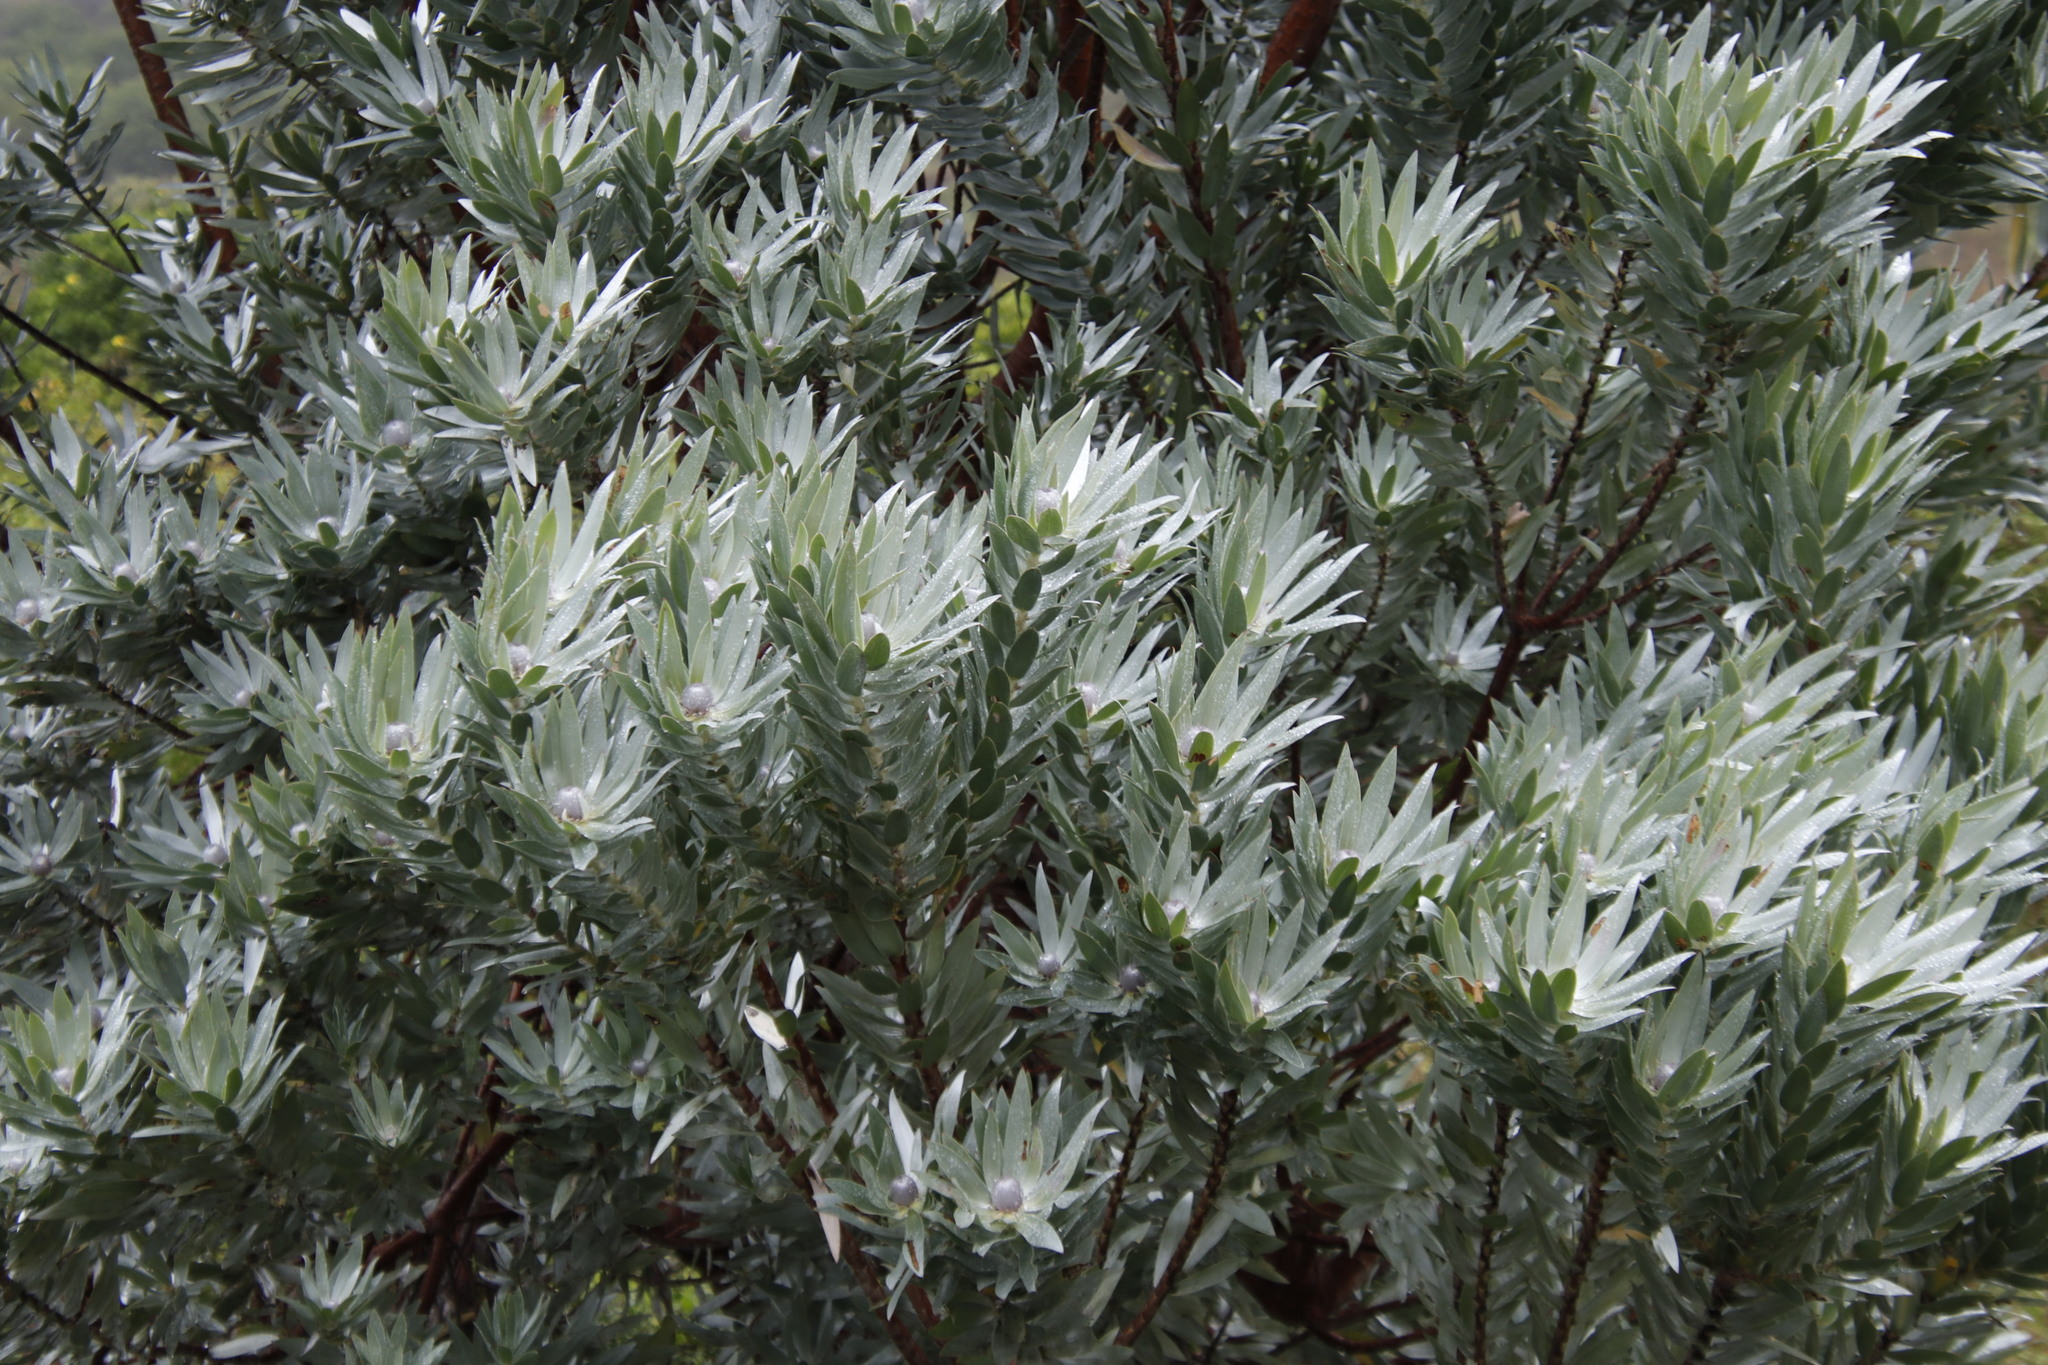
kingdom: Plantae
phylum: Tracheophyta
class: Magnoliopsida
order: Proteales
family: Proteaceae
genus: Leucadendron
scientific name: Leucadendron argenteum
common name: Cape silver tree
